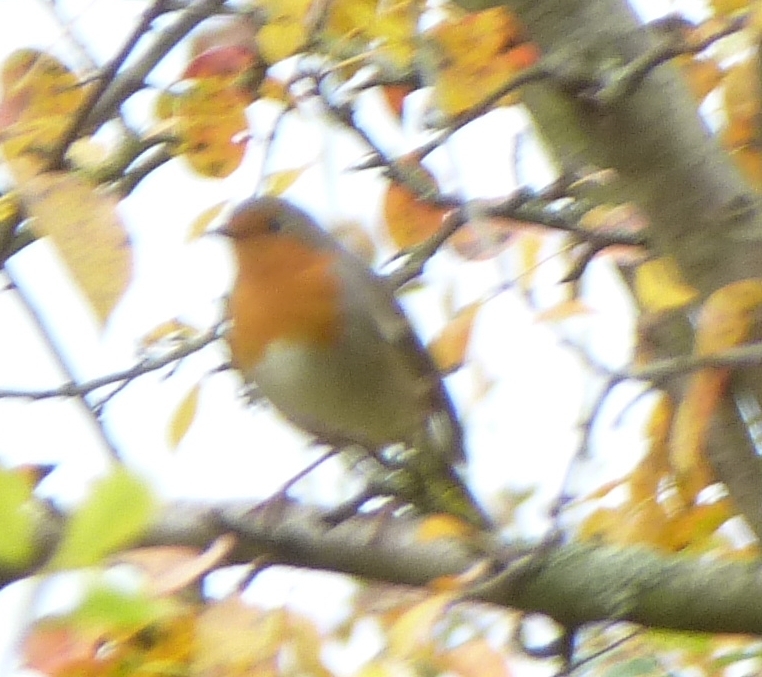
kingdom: Animalia
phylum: Chordata
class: Aves
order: Passeriformes
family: Muscicapidae
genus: Erithacus
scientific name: Erithacus rubecula
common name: European robin
